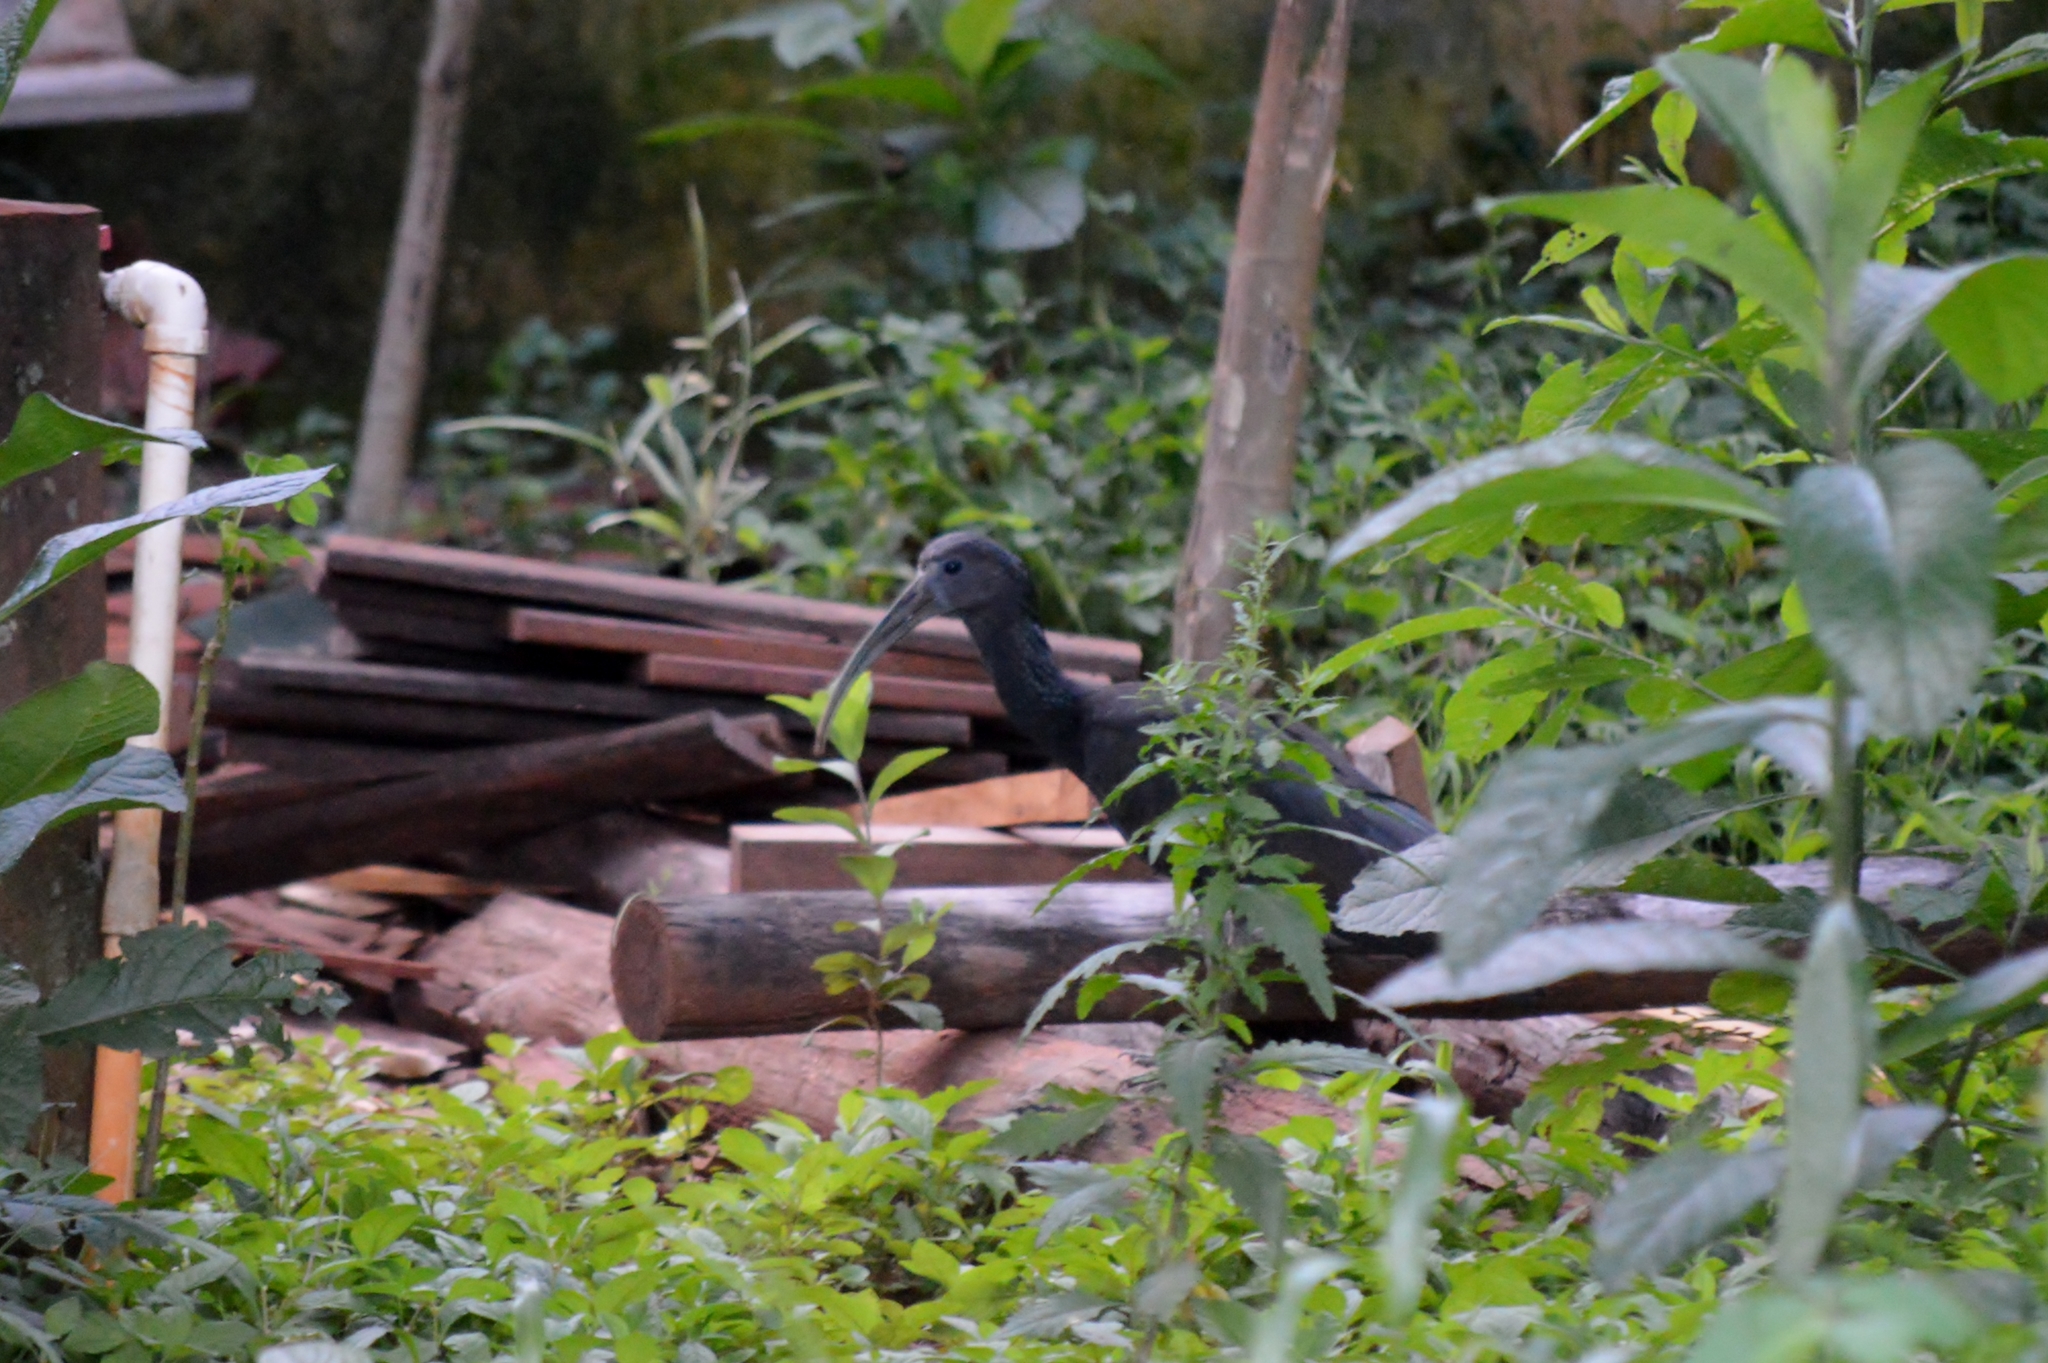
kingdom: Animalia
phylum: Chordata
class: Aves
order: Pelecaniformes
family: Threskiornithidae
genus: Mesembrinibis
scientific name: Mesembrinibis cayennensis
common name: Green ibis
